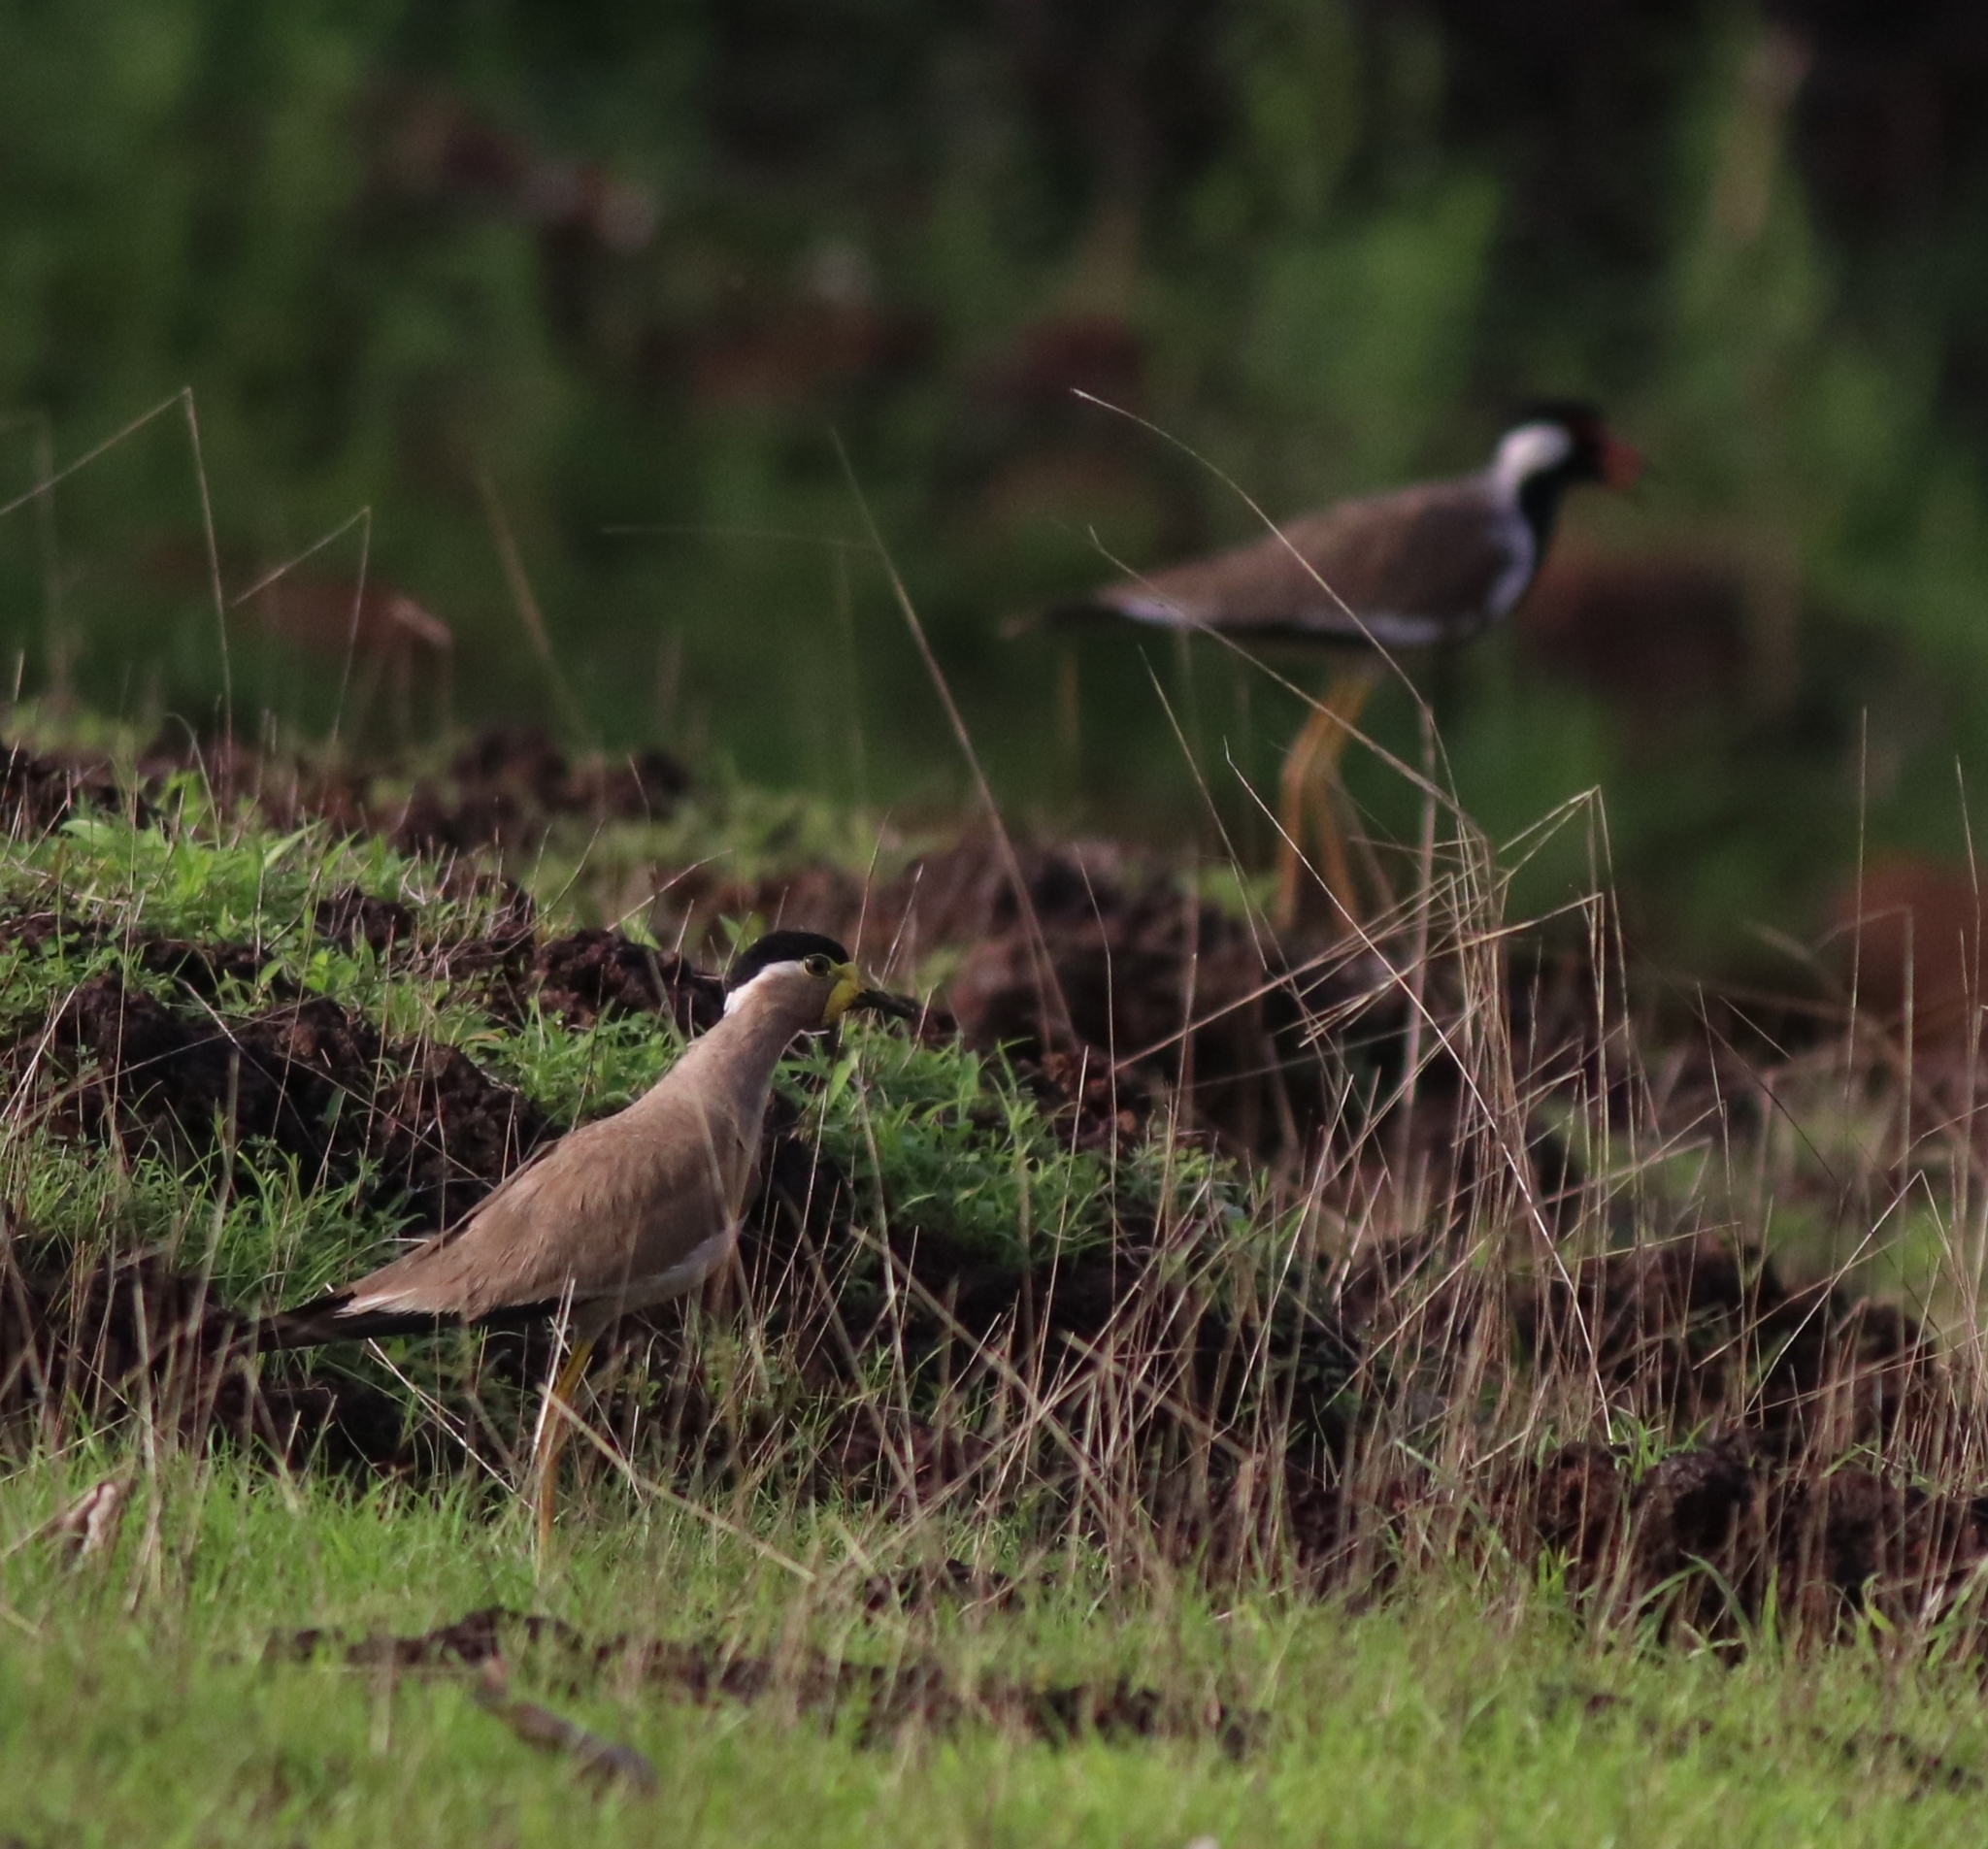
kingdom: Animalia
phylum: Chordata
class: Aves
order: Charadriiformes
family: Charadriidae
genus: Vanellus
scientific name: Vanellus malabaricus
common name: Yellow-wattled lapwing
